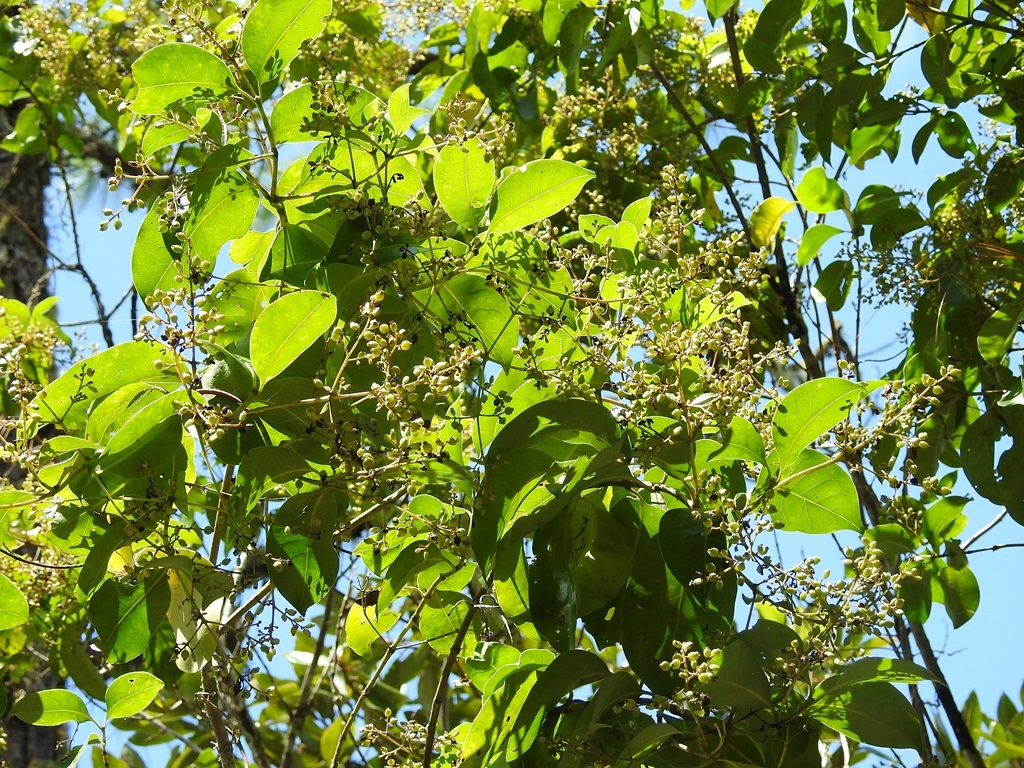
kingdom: Plantae
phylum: Tracheophyta
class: Magnoliopsida
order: Gentianales
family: Rubiaceae
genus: Chiococca
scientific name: Chiococca phaenostemon
